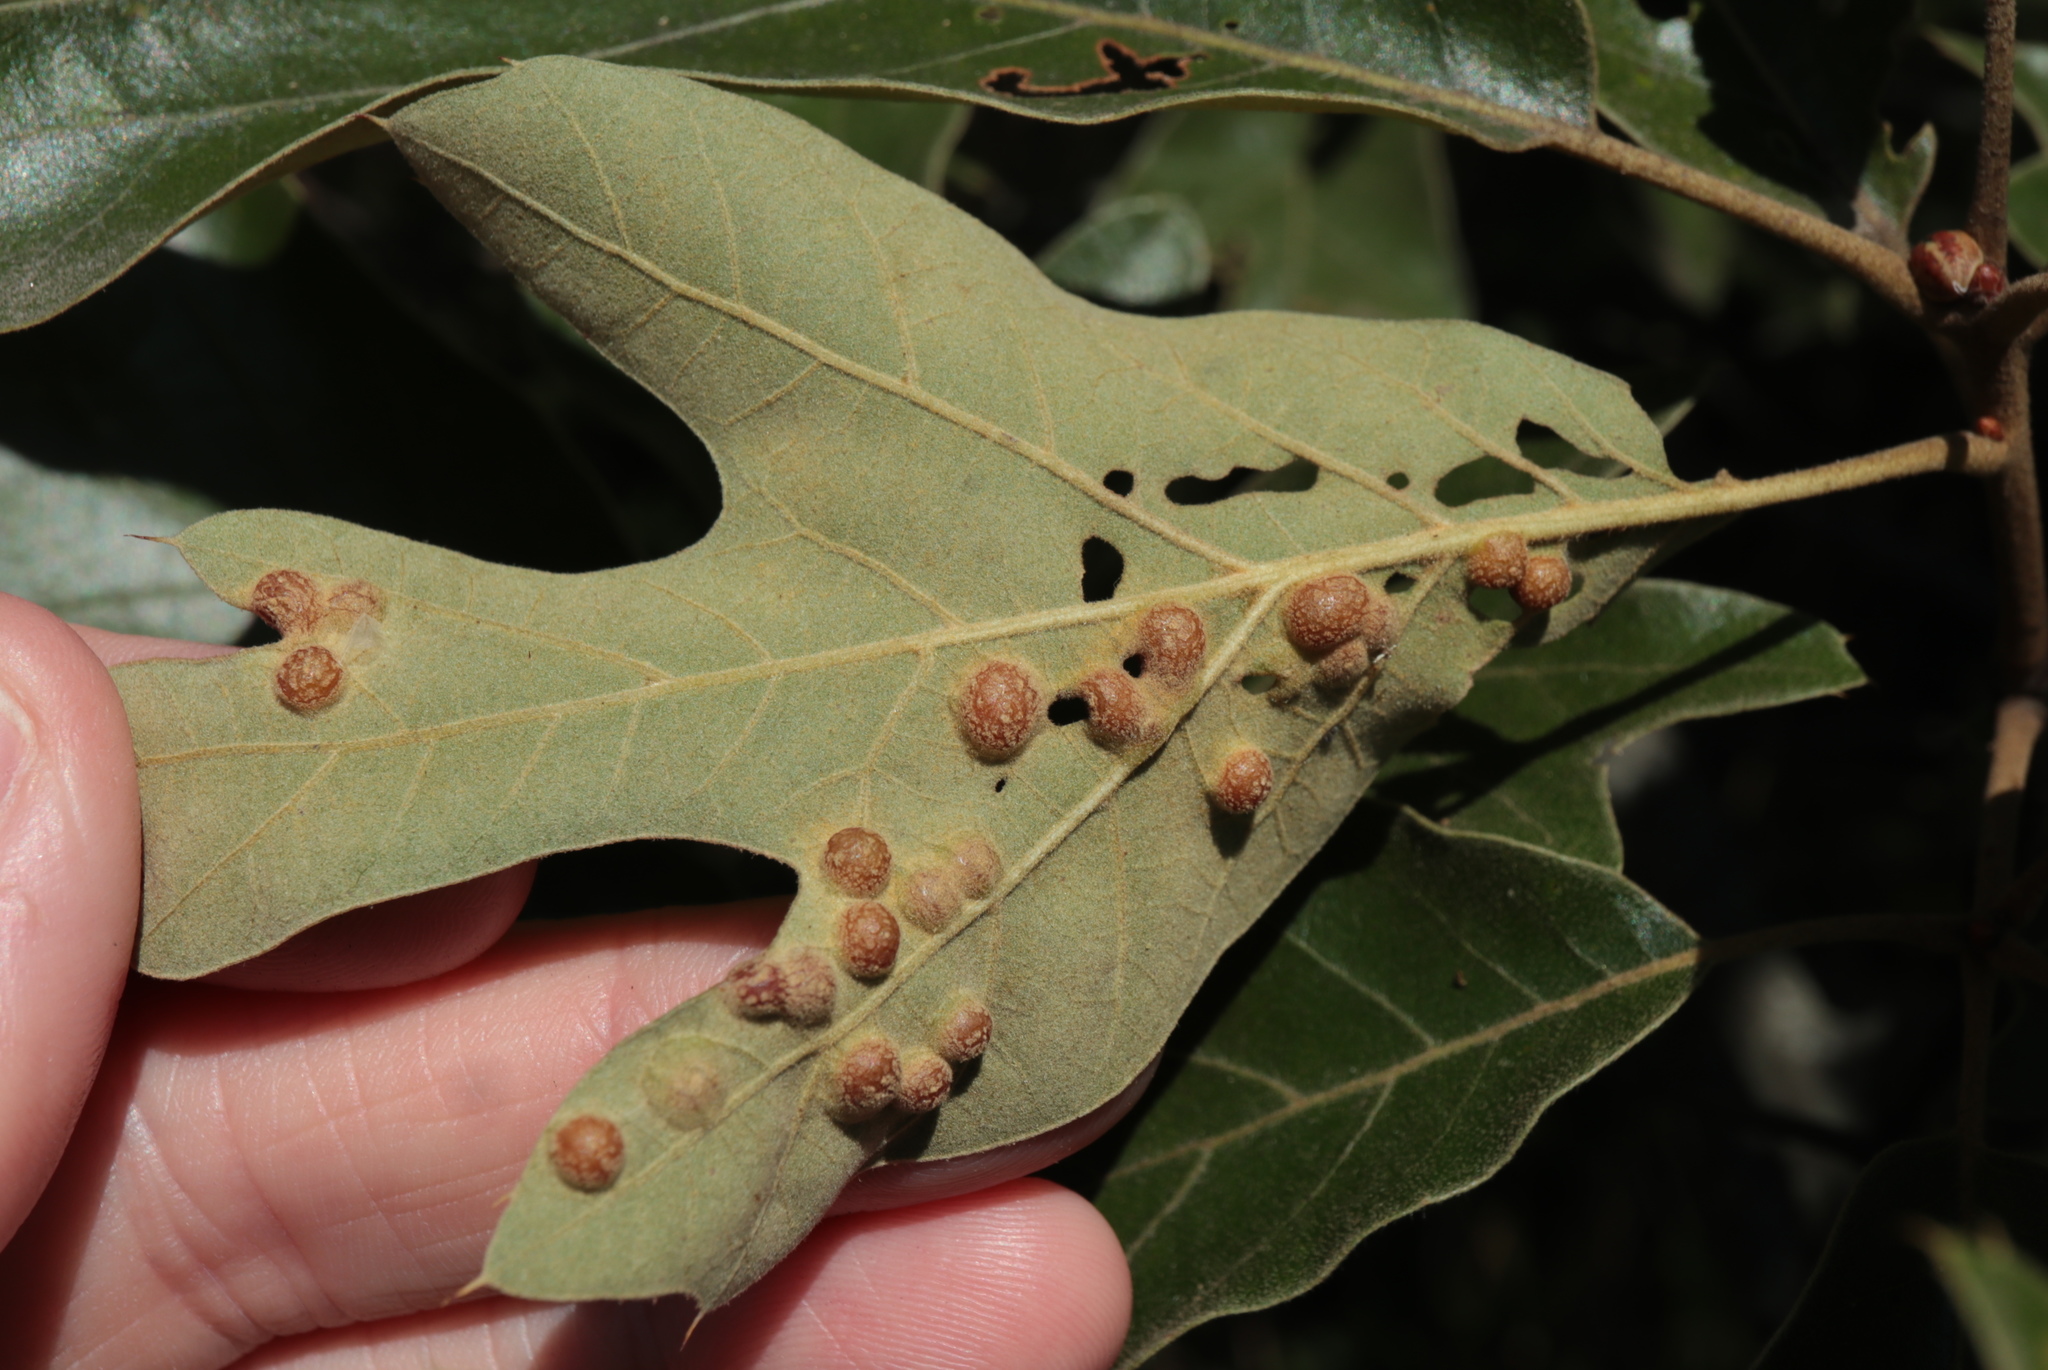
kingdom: Animalia
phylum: Arthropoda
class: Insecta
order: Diptera
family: Cecidomyiidae
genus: Polystepha
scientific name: Polystepha symmetrica
